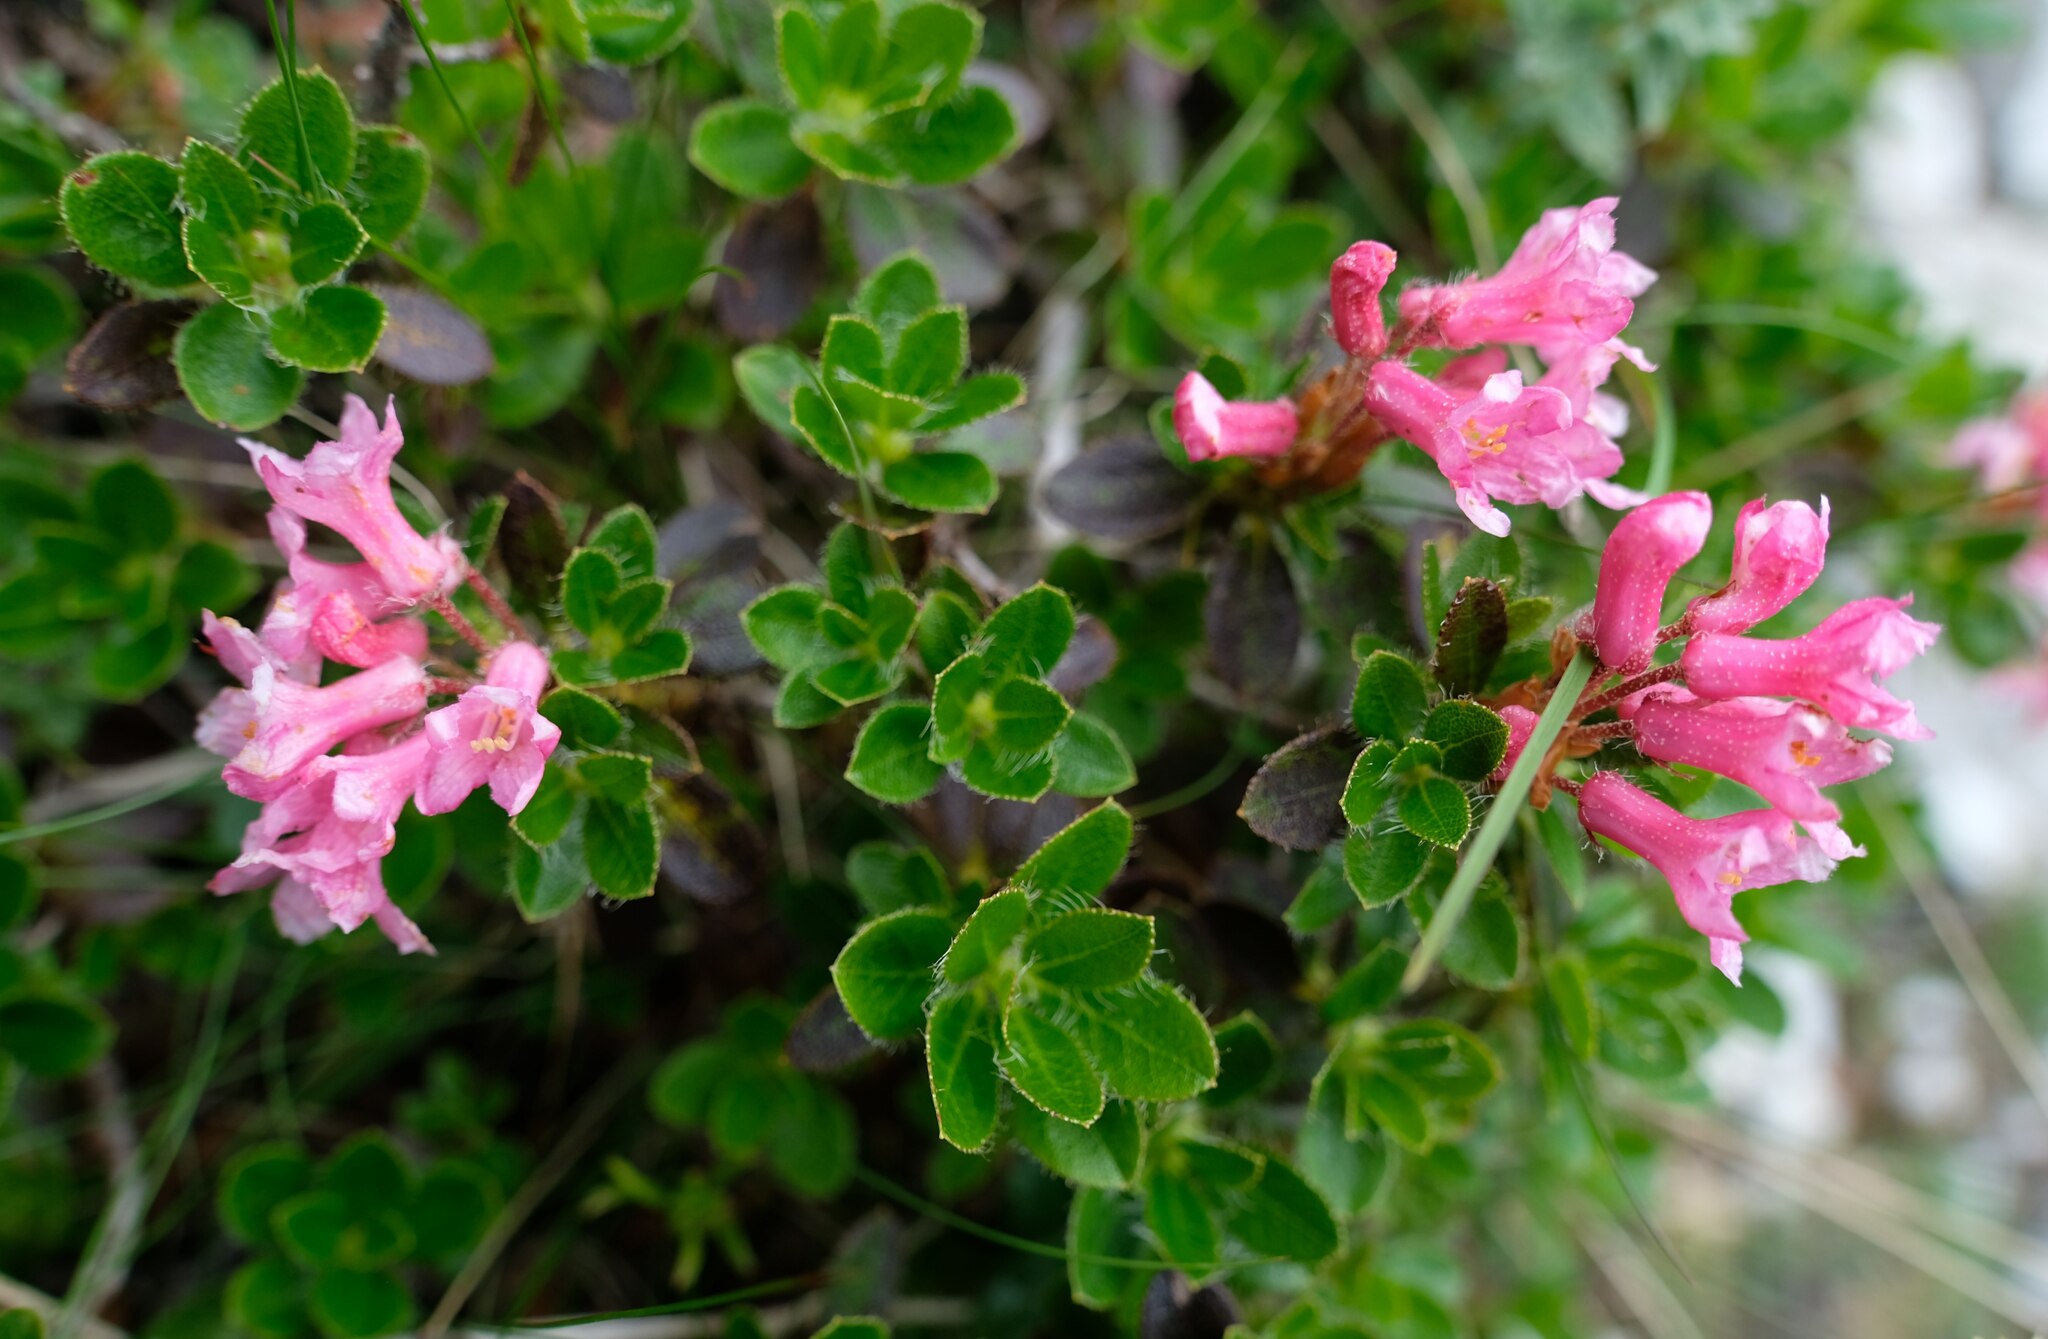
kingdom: Plantae
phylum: Tracheophyta
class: Magnoliopsida
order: Ericales
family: Ericaceae
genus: Rhododendron
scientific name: Rhododendron hirsutum
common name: Hairy alpenrose
